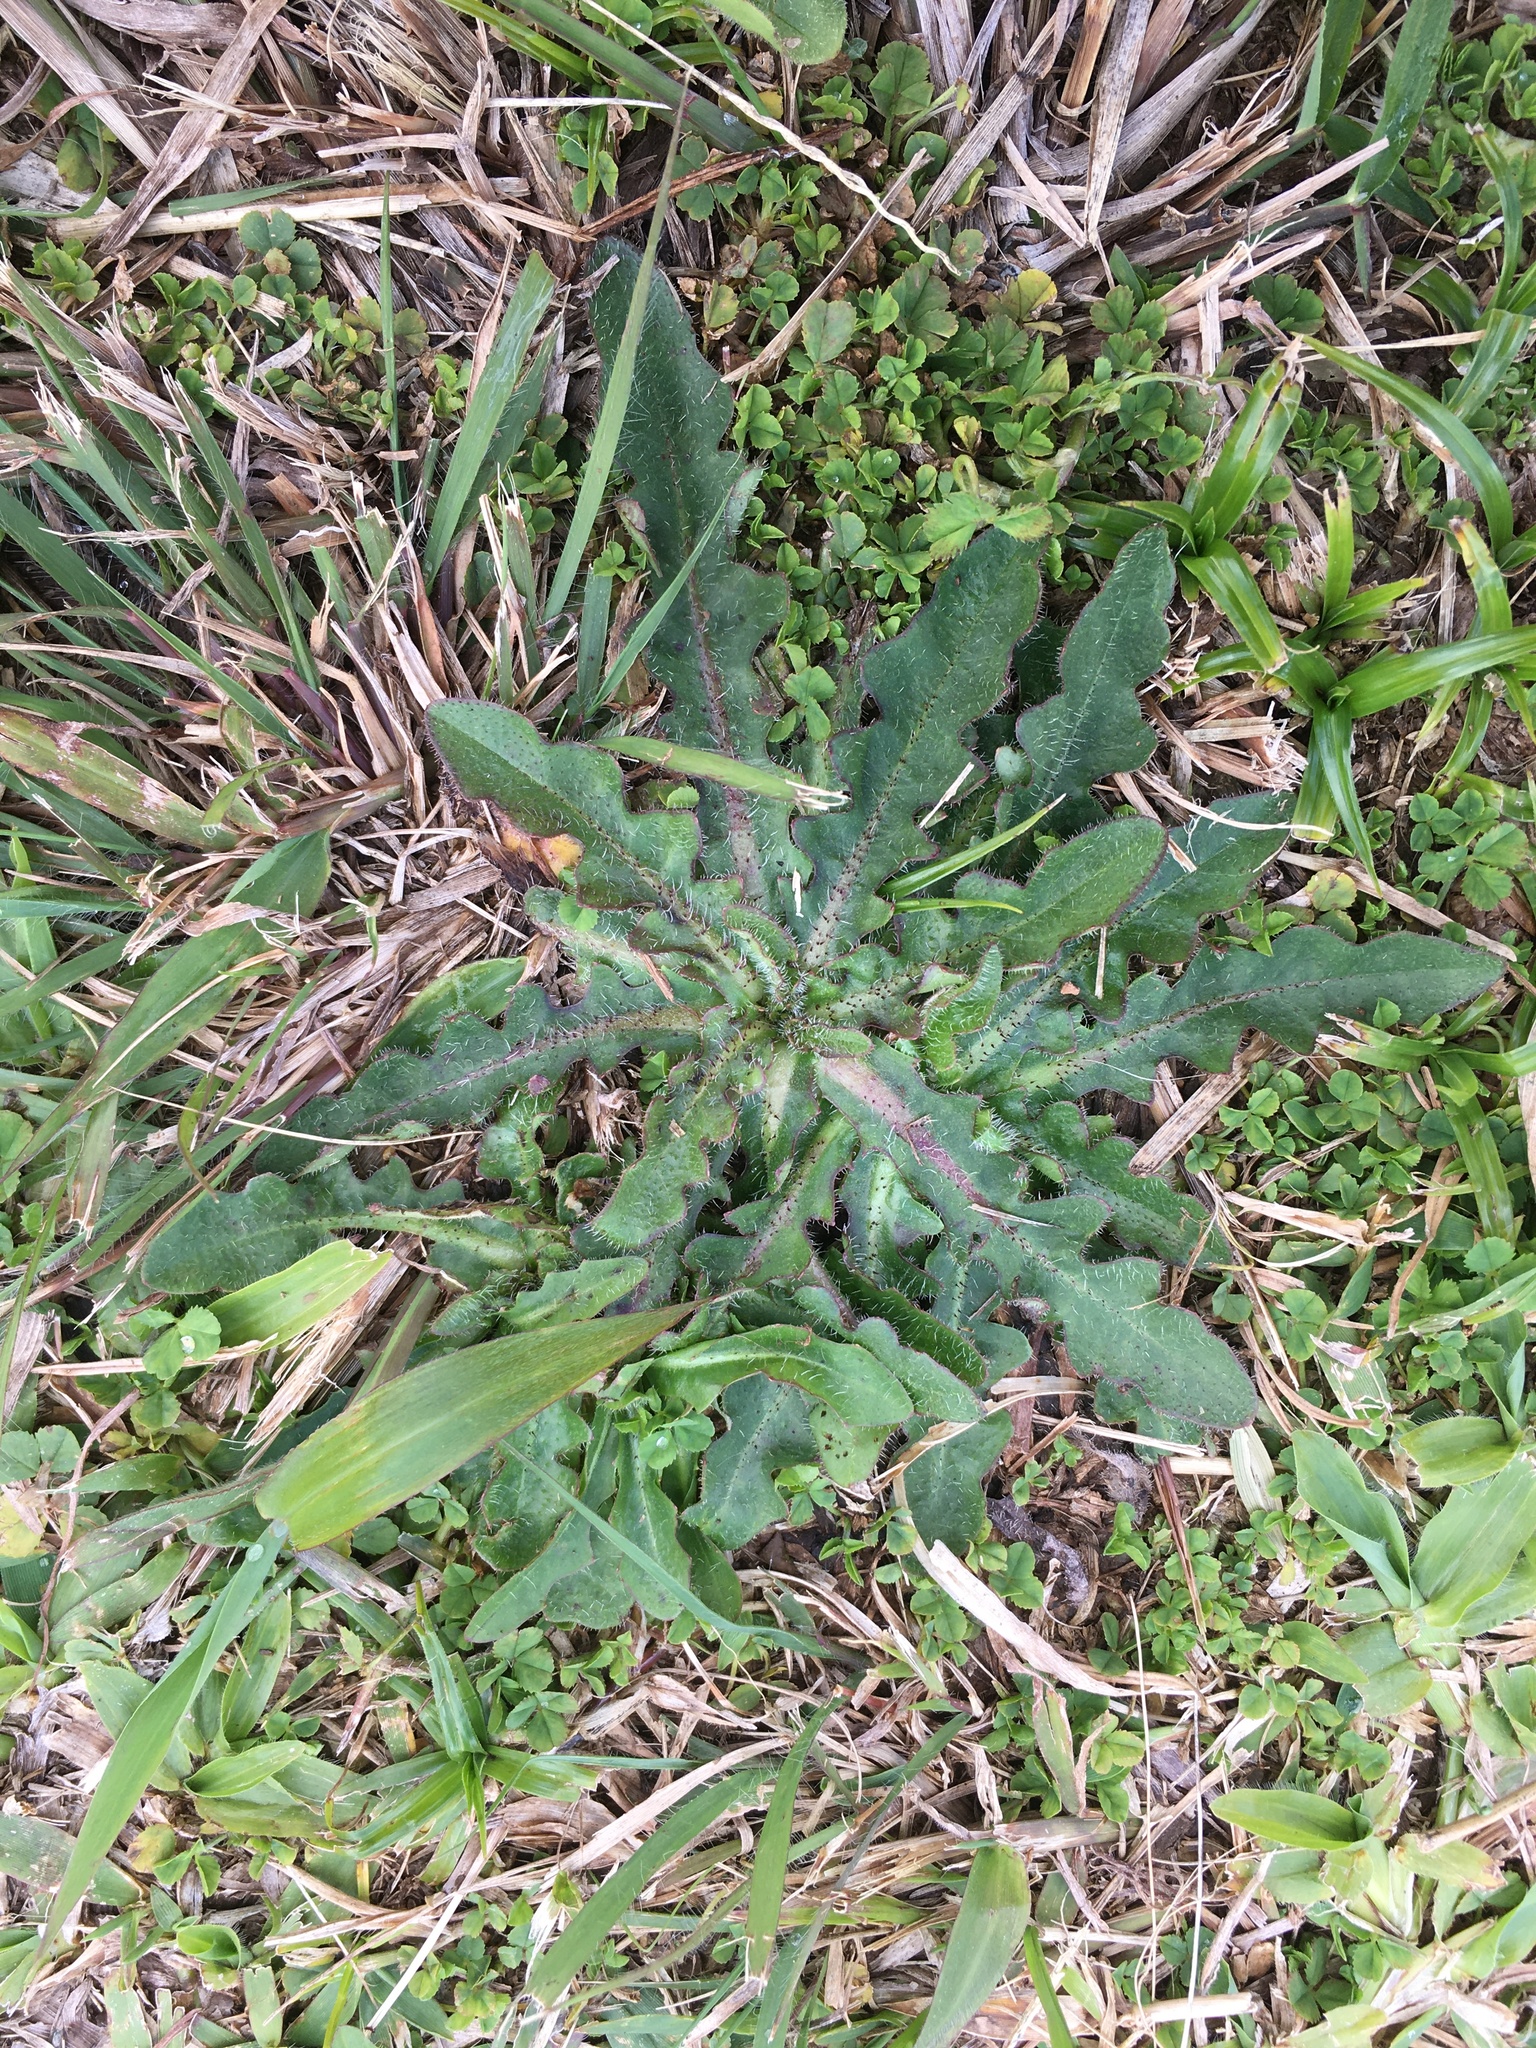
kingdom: Plantae
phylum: Tracheophyta
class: Magnoliopsida
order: Asterales
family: Asteraceae
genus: Hypochaeris
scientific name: Hypochaeris radicata
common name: Flatweed
